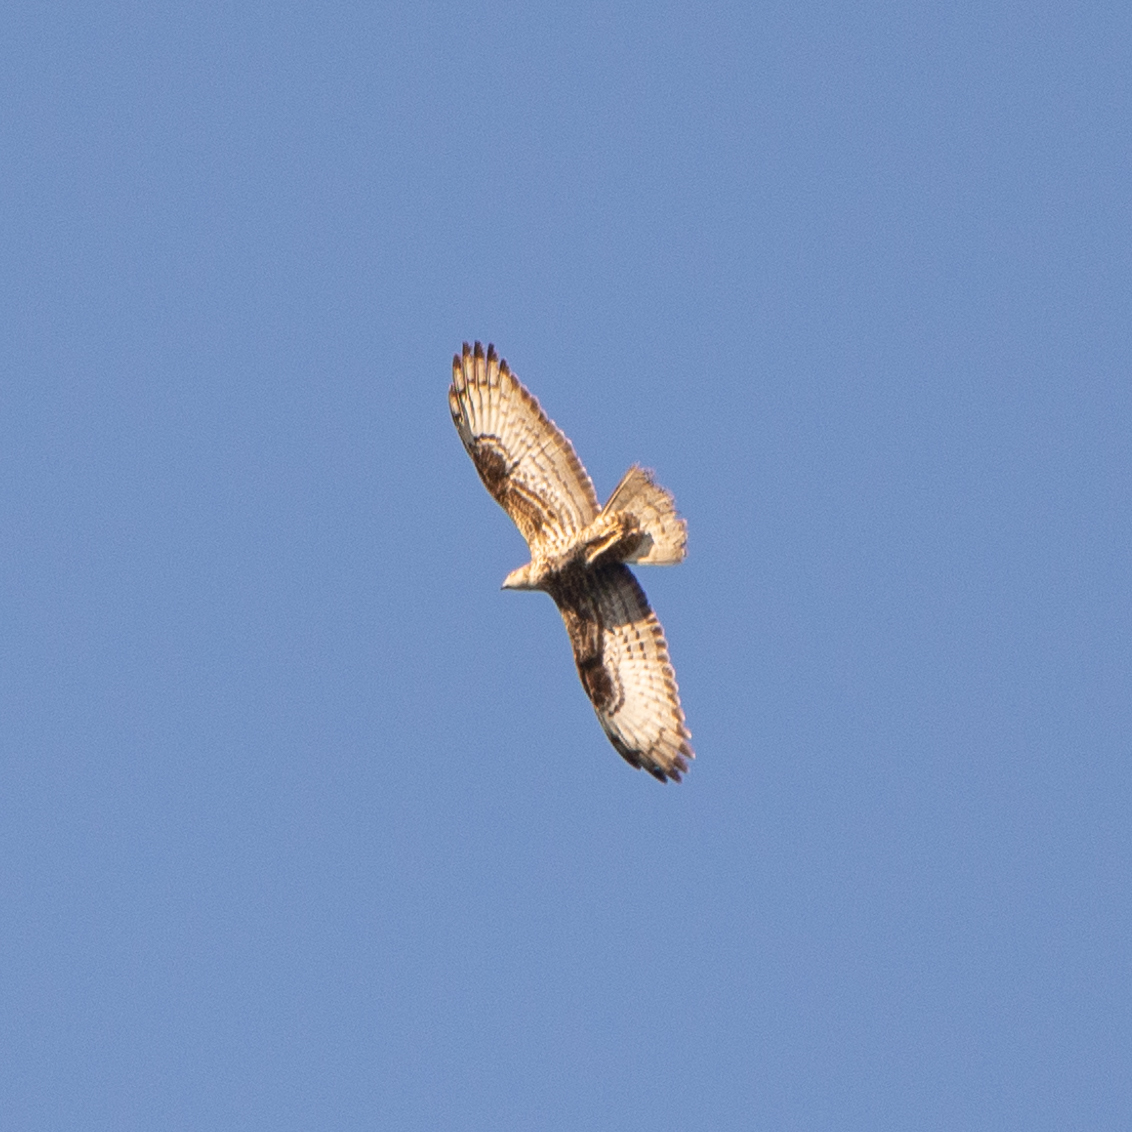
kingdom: Animalia
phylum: Chordata
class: Aves
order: Accipitriformes
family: Accipitridae
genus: Pernis
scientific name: Pernis apivorus
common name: European honey buzzard
